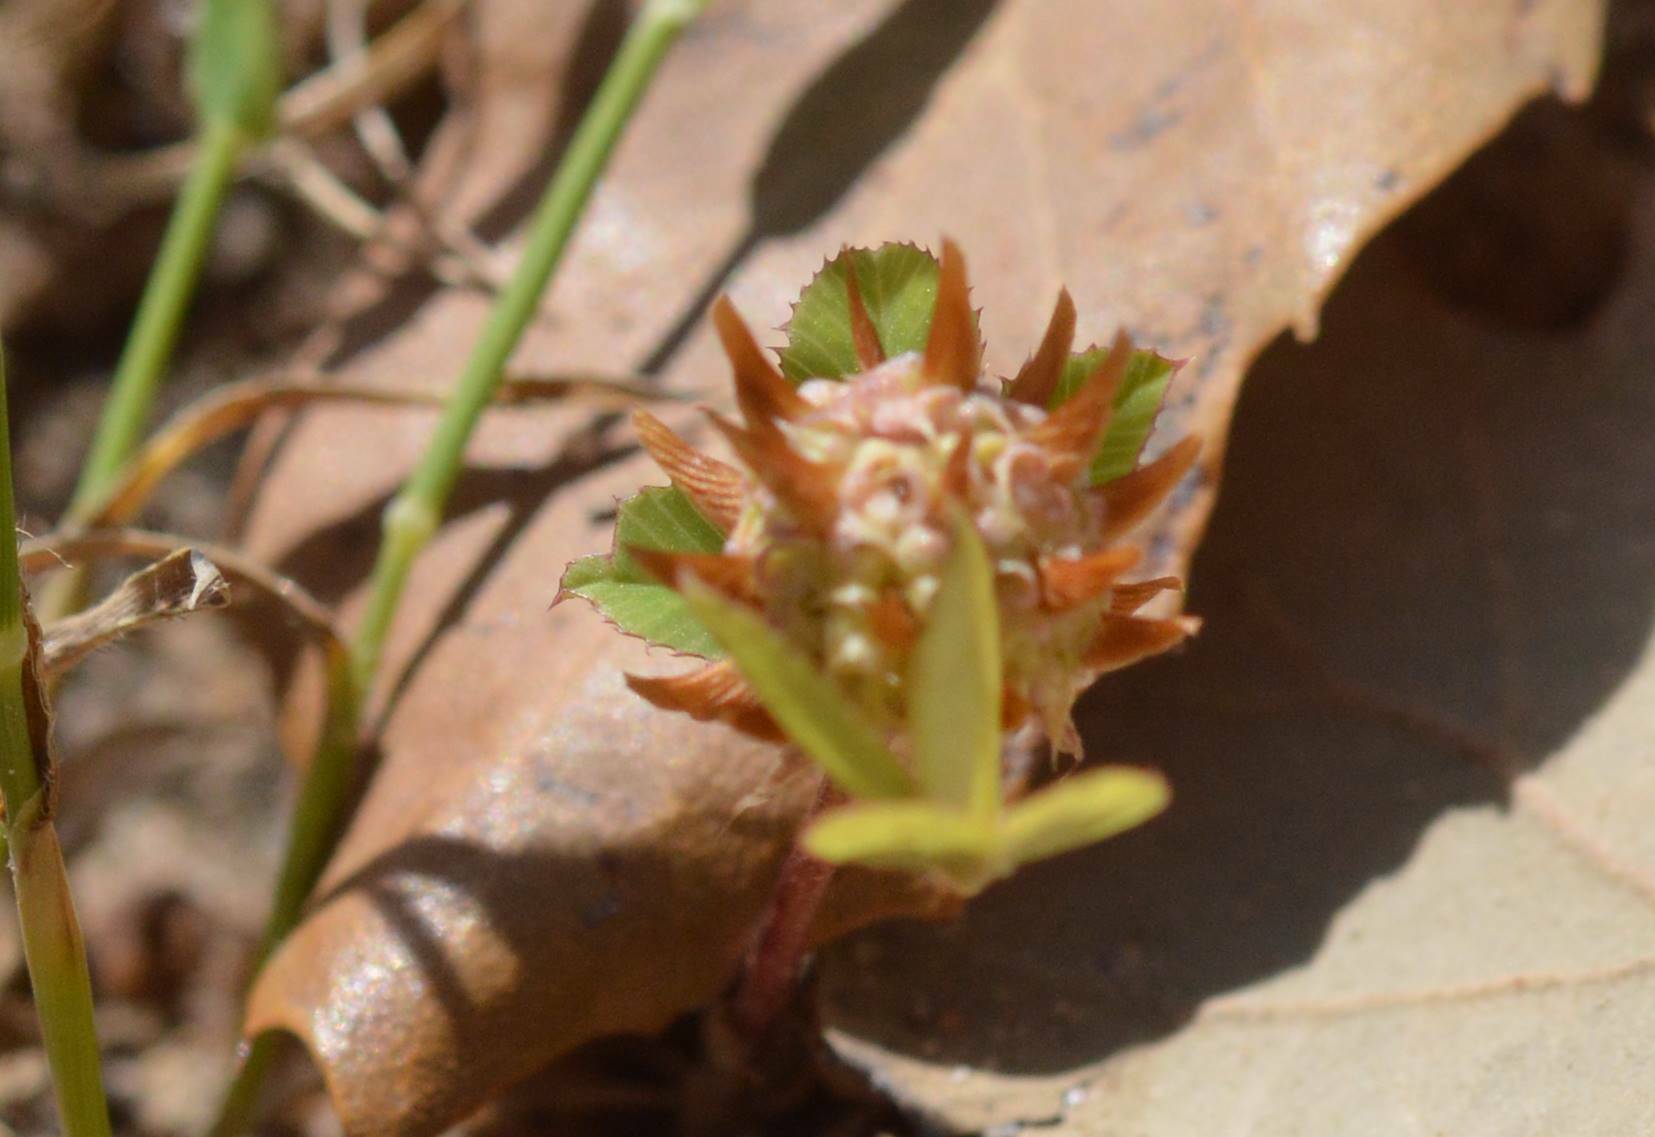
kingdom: Plantae
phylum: Tracheophyta
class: Magnoliopsida
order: Fabales
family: Fabaceae
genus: Trifolium
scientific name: Trifolium glomeratum
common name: Clustered clover
